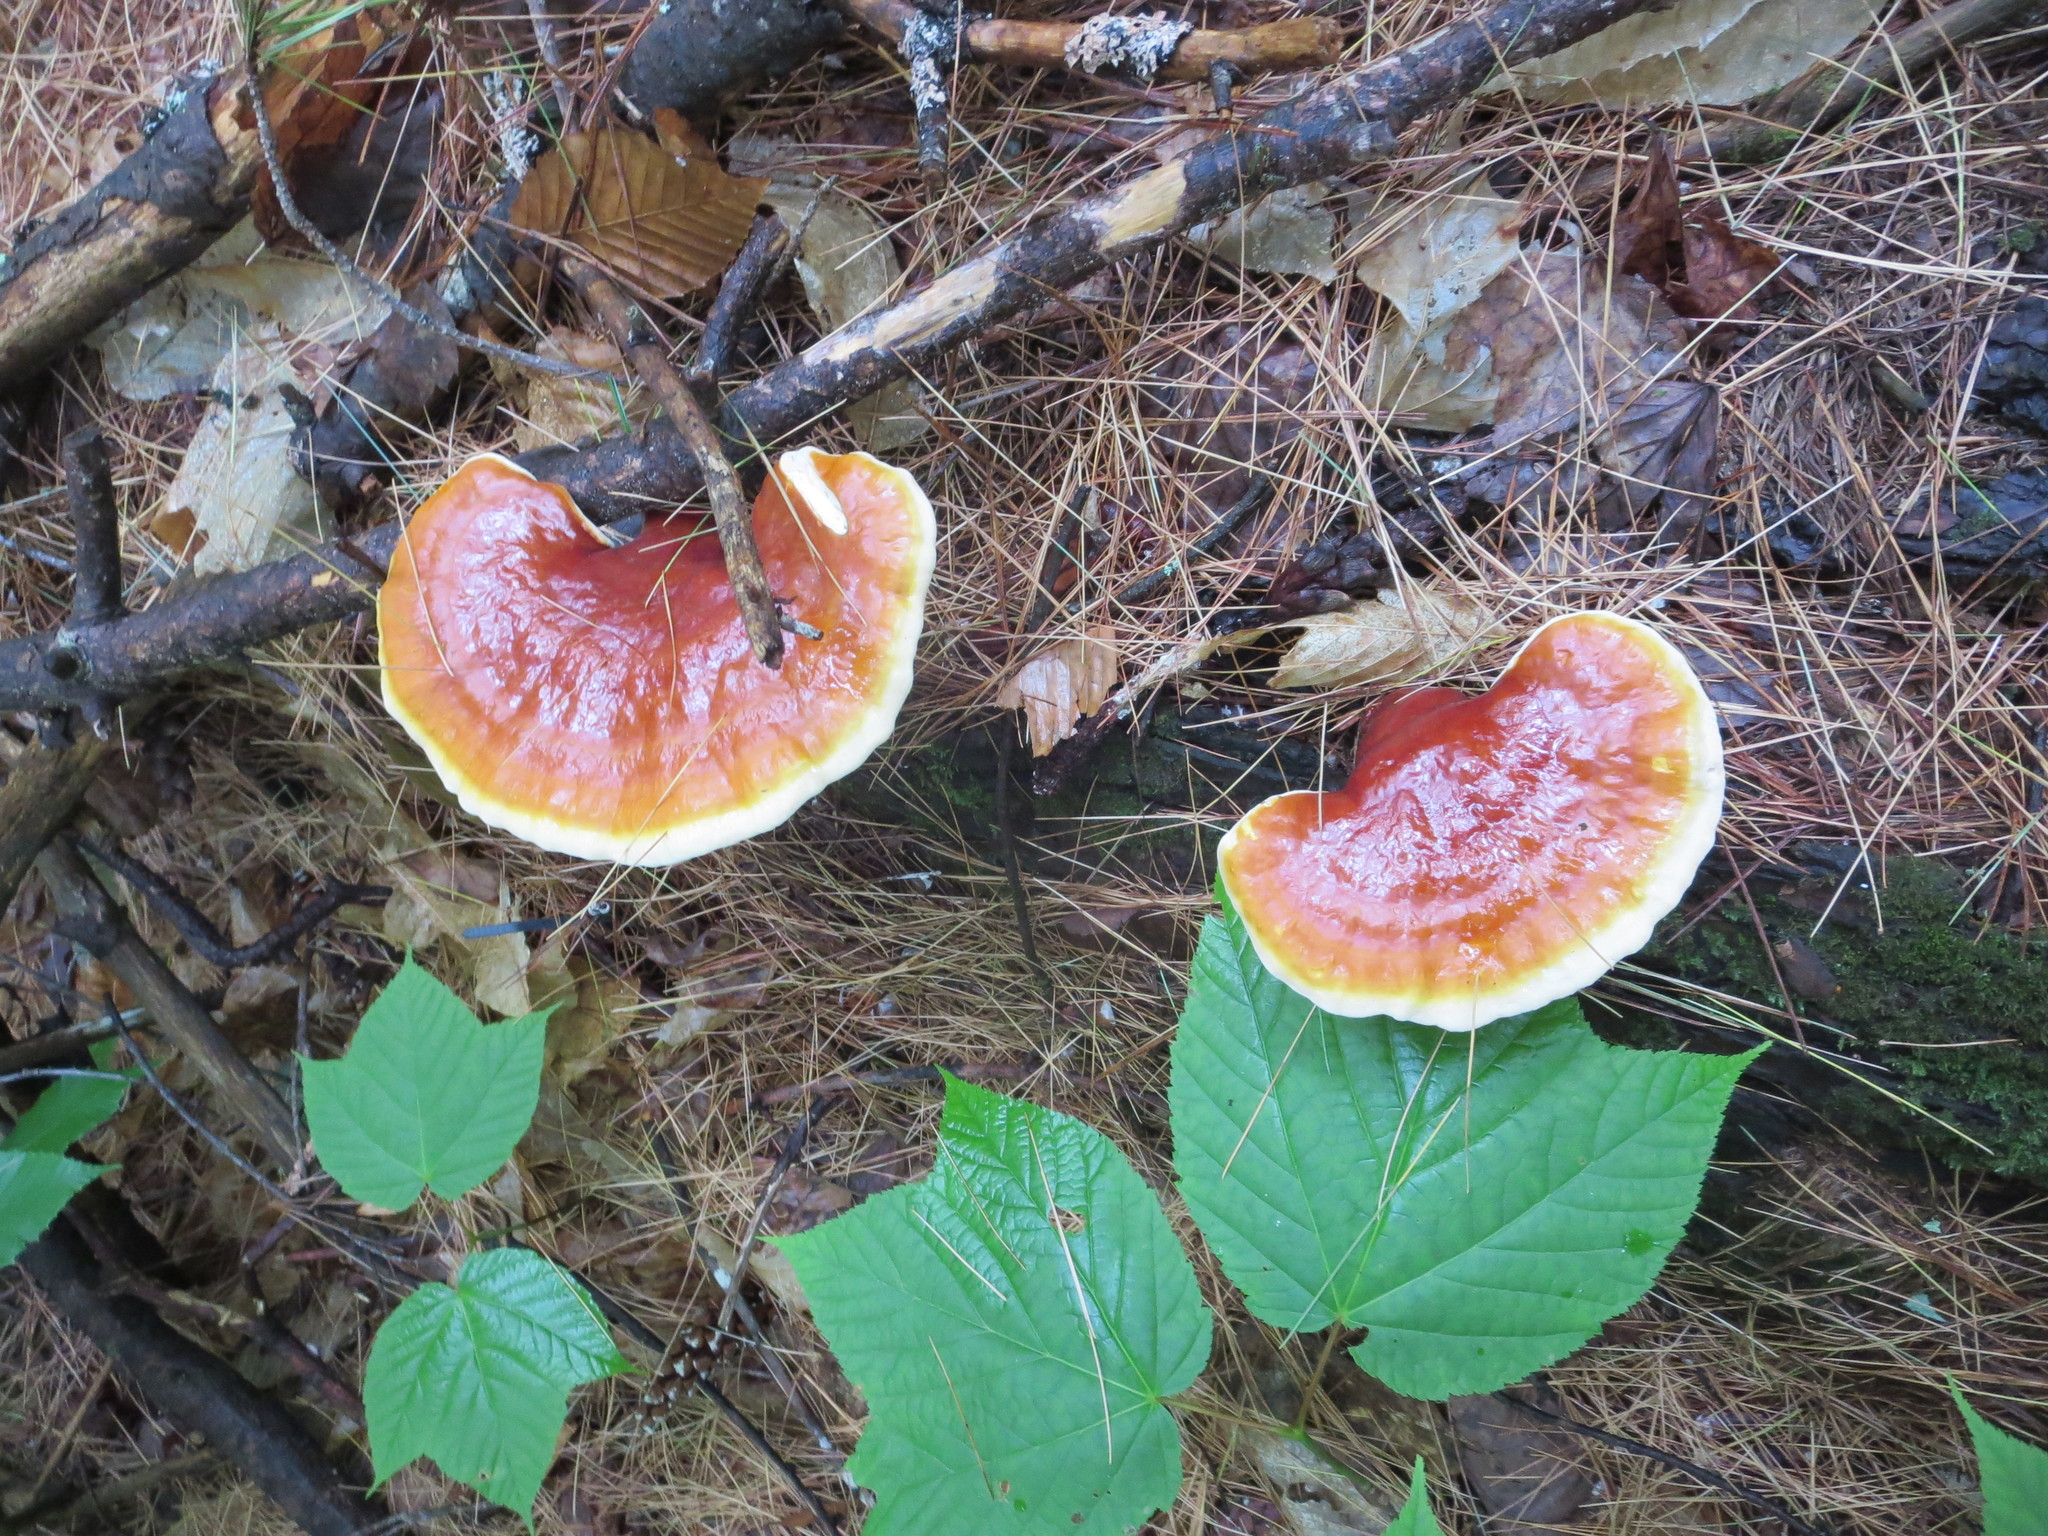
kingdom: Fungi
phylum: Basidiomycota
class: Agaricomycetes
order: Polyporales
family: Polyporaceae
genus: Ganoderma
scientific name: Ganoderma tsugae
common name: Hemlock varnish shelf
